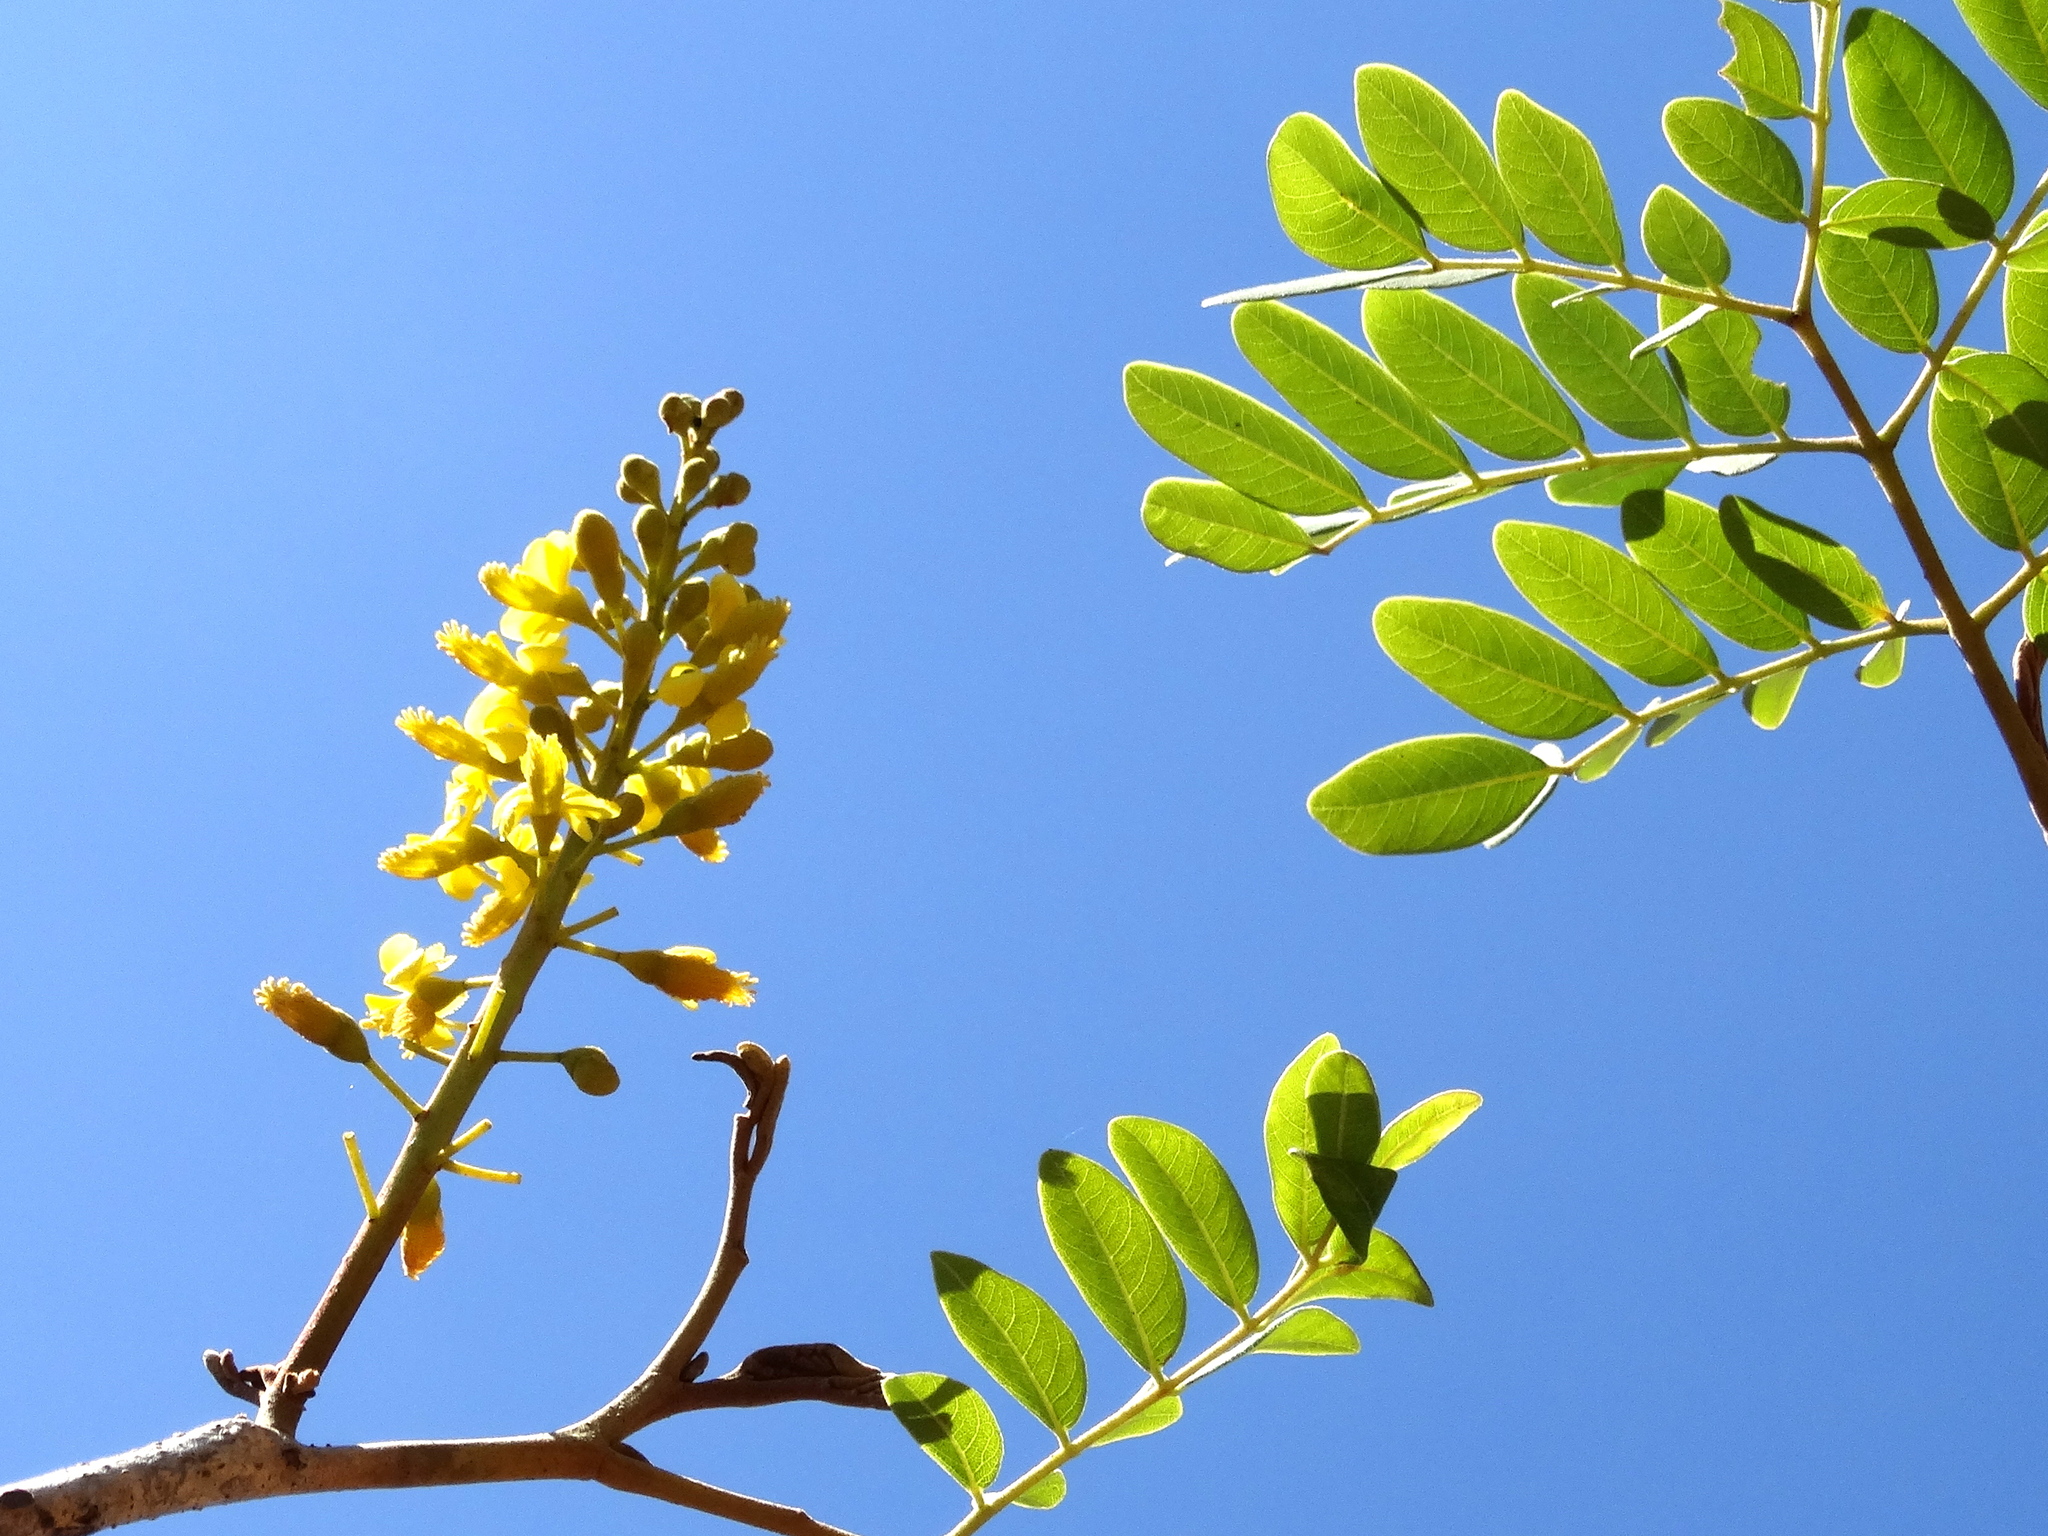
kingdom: Plantae
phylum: Tracheophyta
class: Magnoliopsida
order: Fabales
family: Fabaceae
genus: Coulteria
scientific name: Coulteria platyloba
